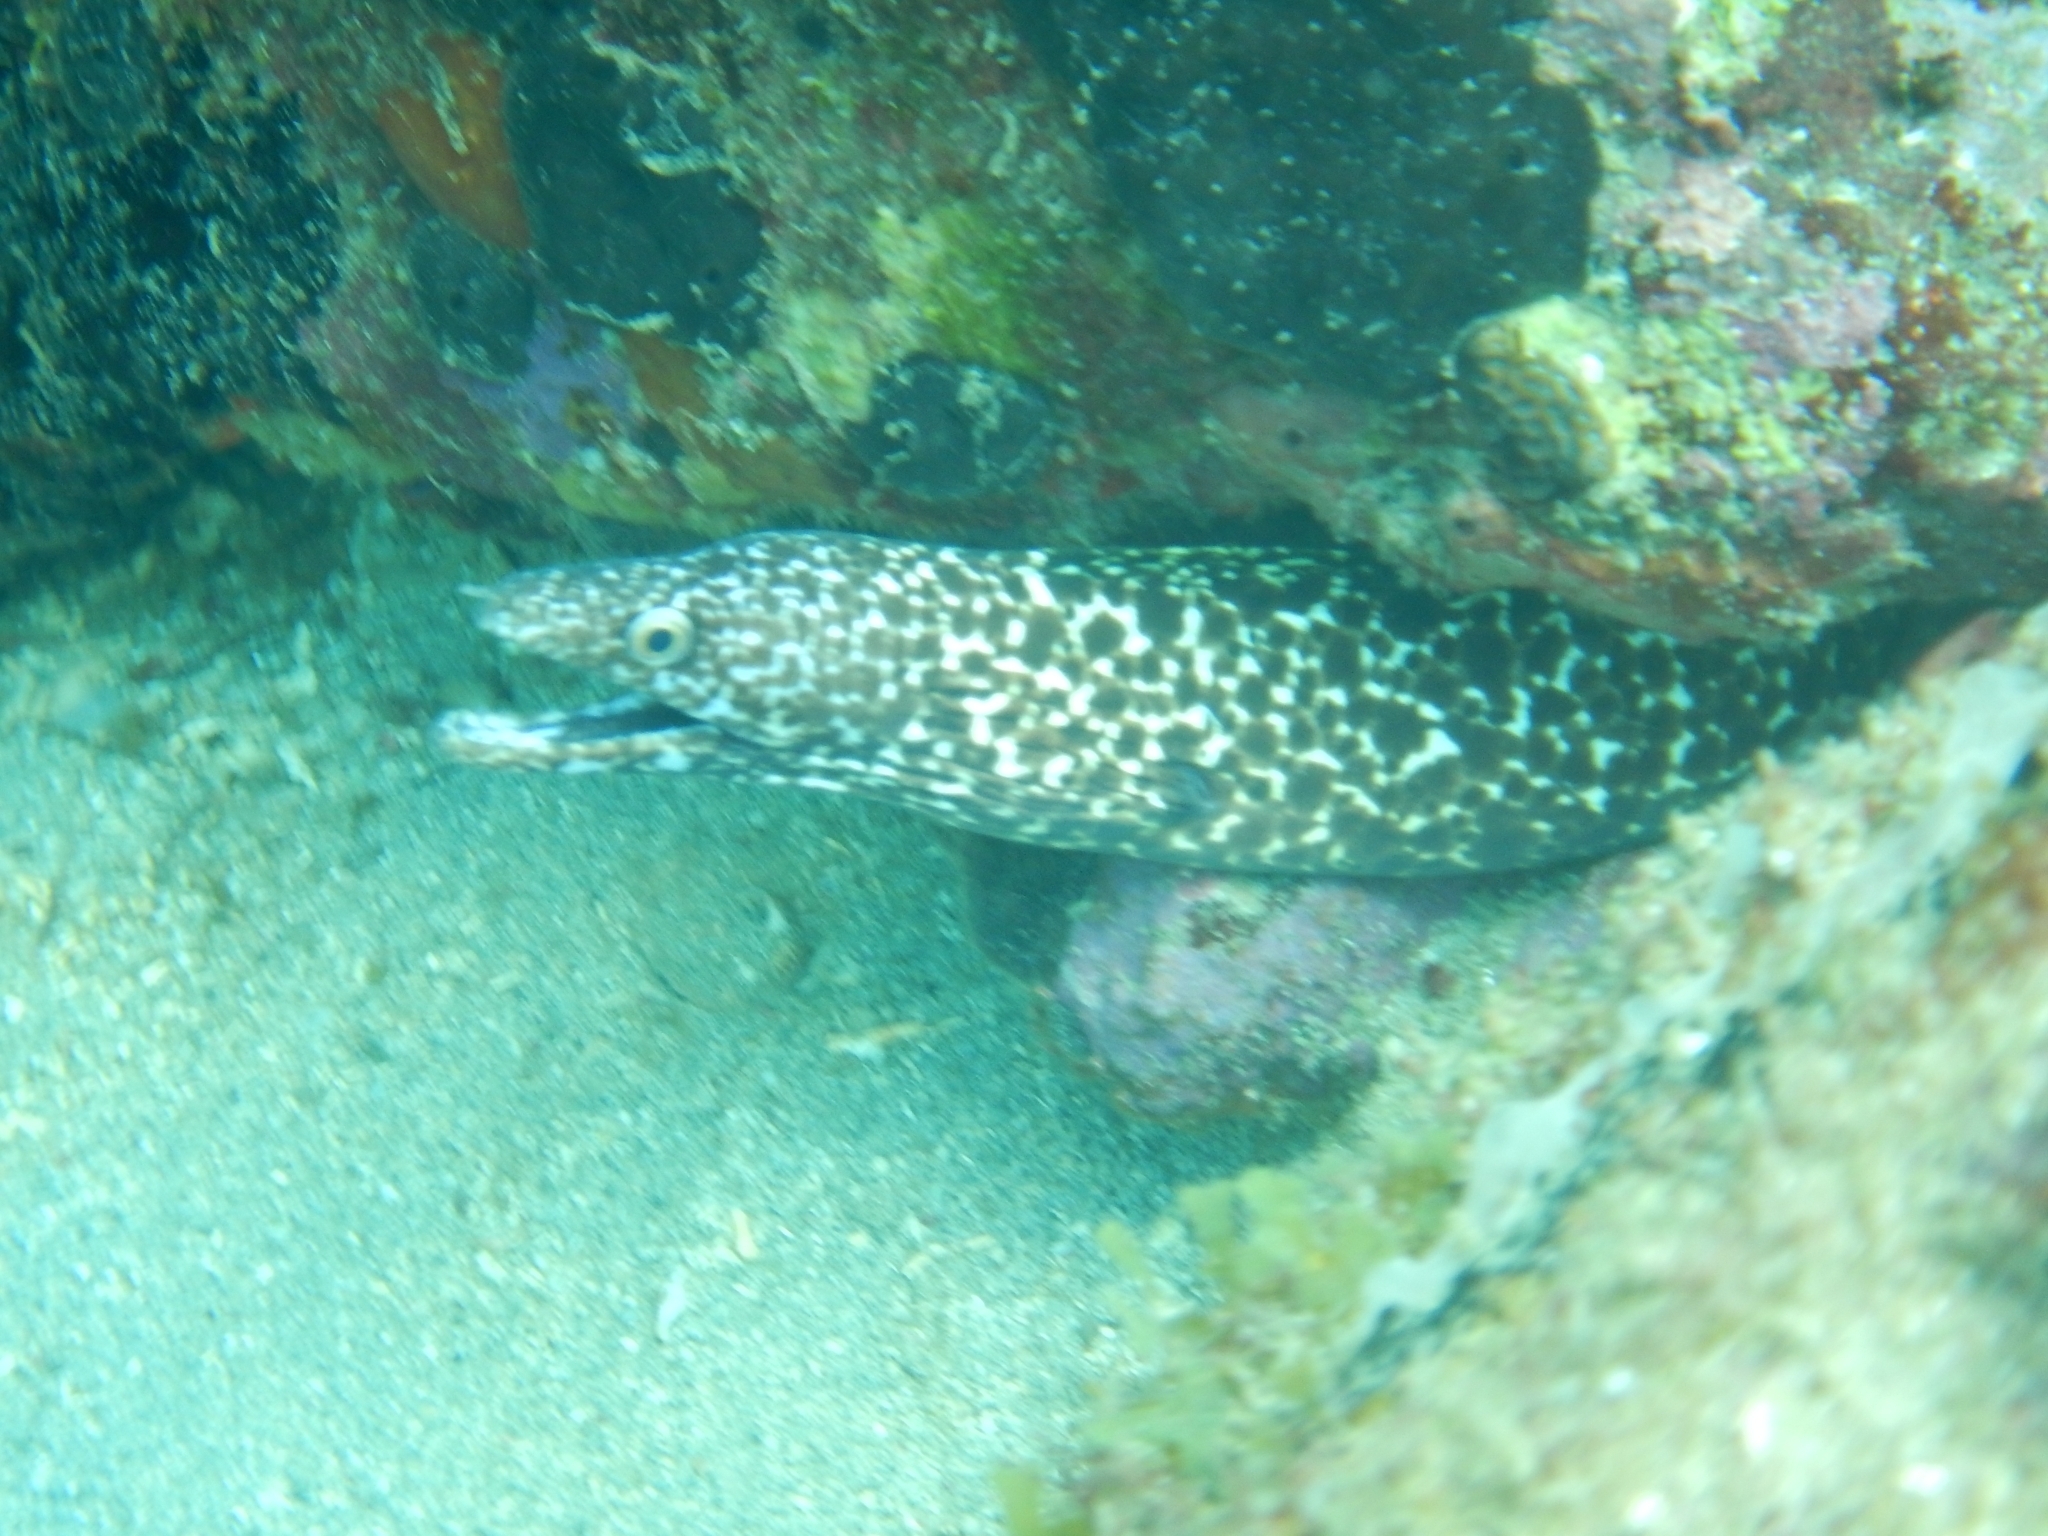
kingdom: Animalia
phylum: Chordata
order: Anguilliformes
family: Muraenidae
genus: Gymnothorax
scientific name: Gymnothorax moringa
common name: Spotted moray
